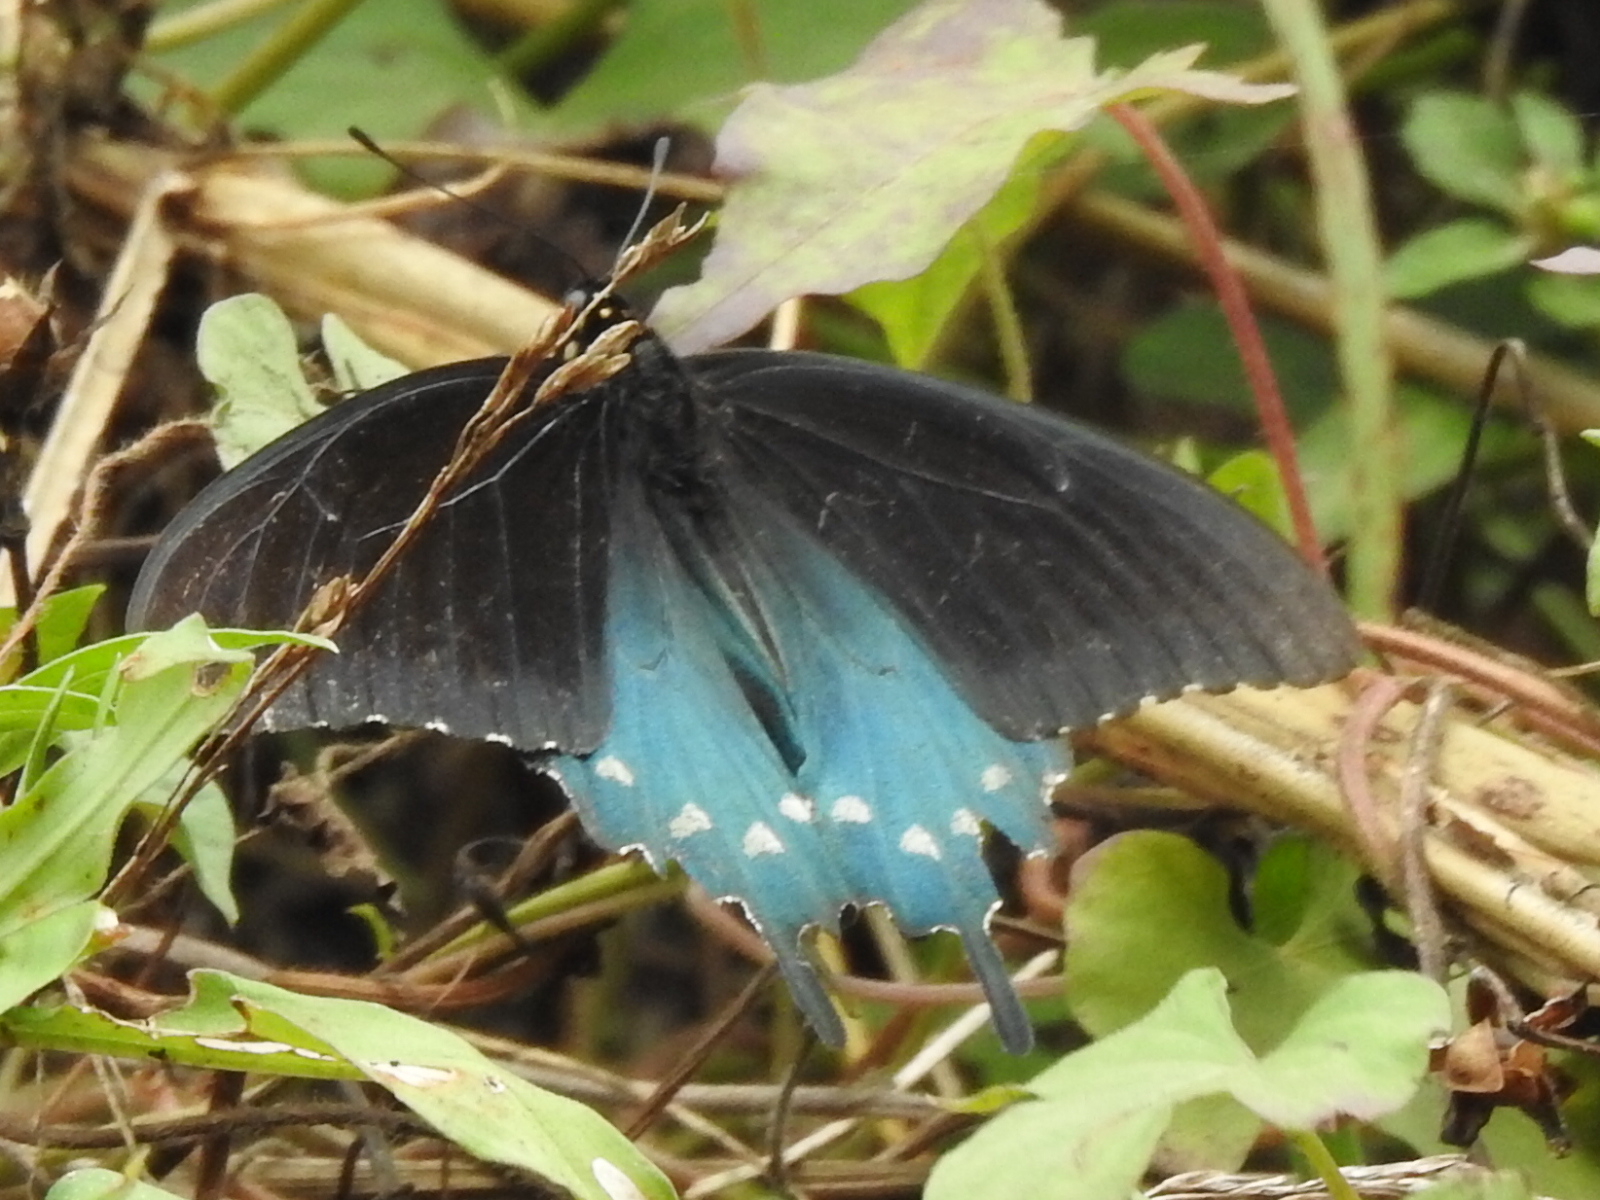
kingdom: Animalia
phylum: Arthropoda
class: Insecta
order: Lepidoptera
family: Papilionidae
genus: Battus
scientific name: Battus philenor
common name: Pipevine swallowtail
